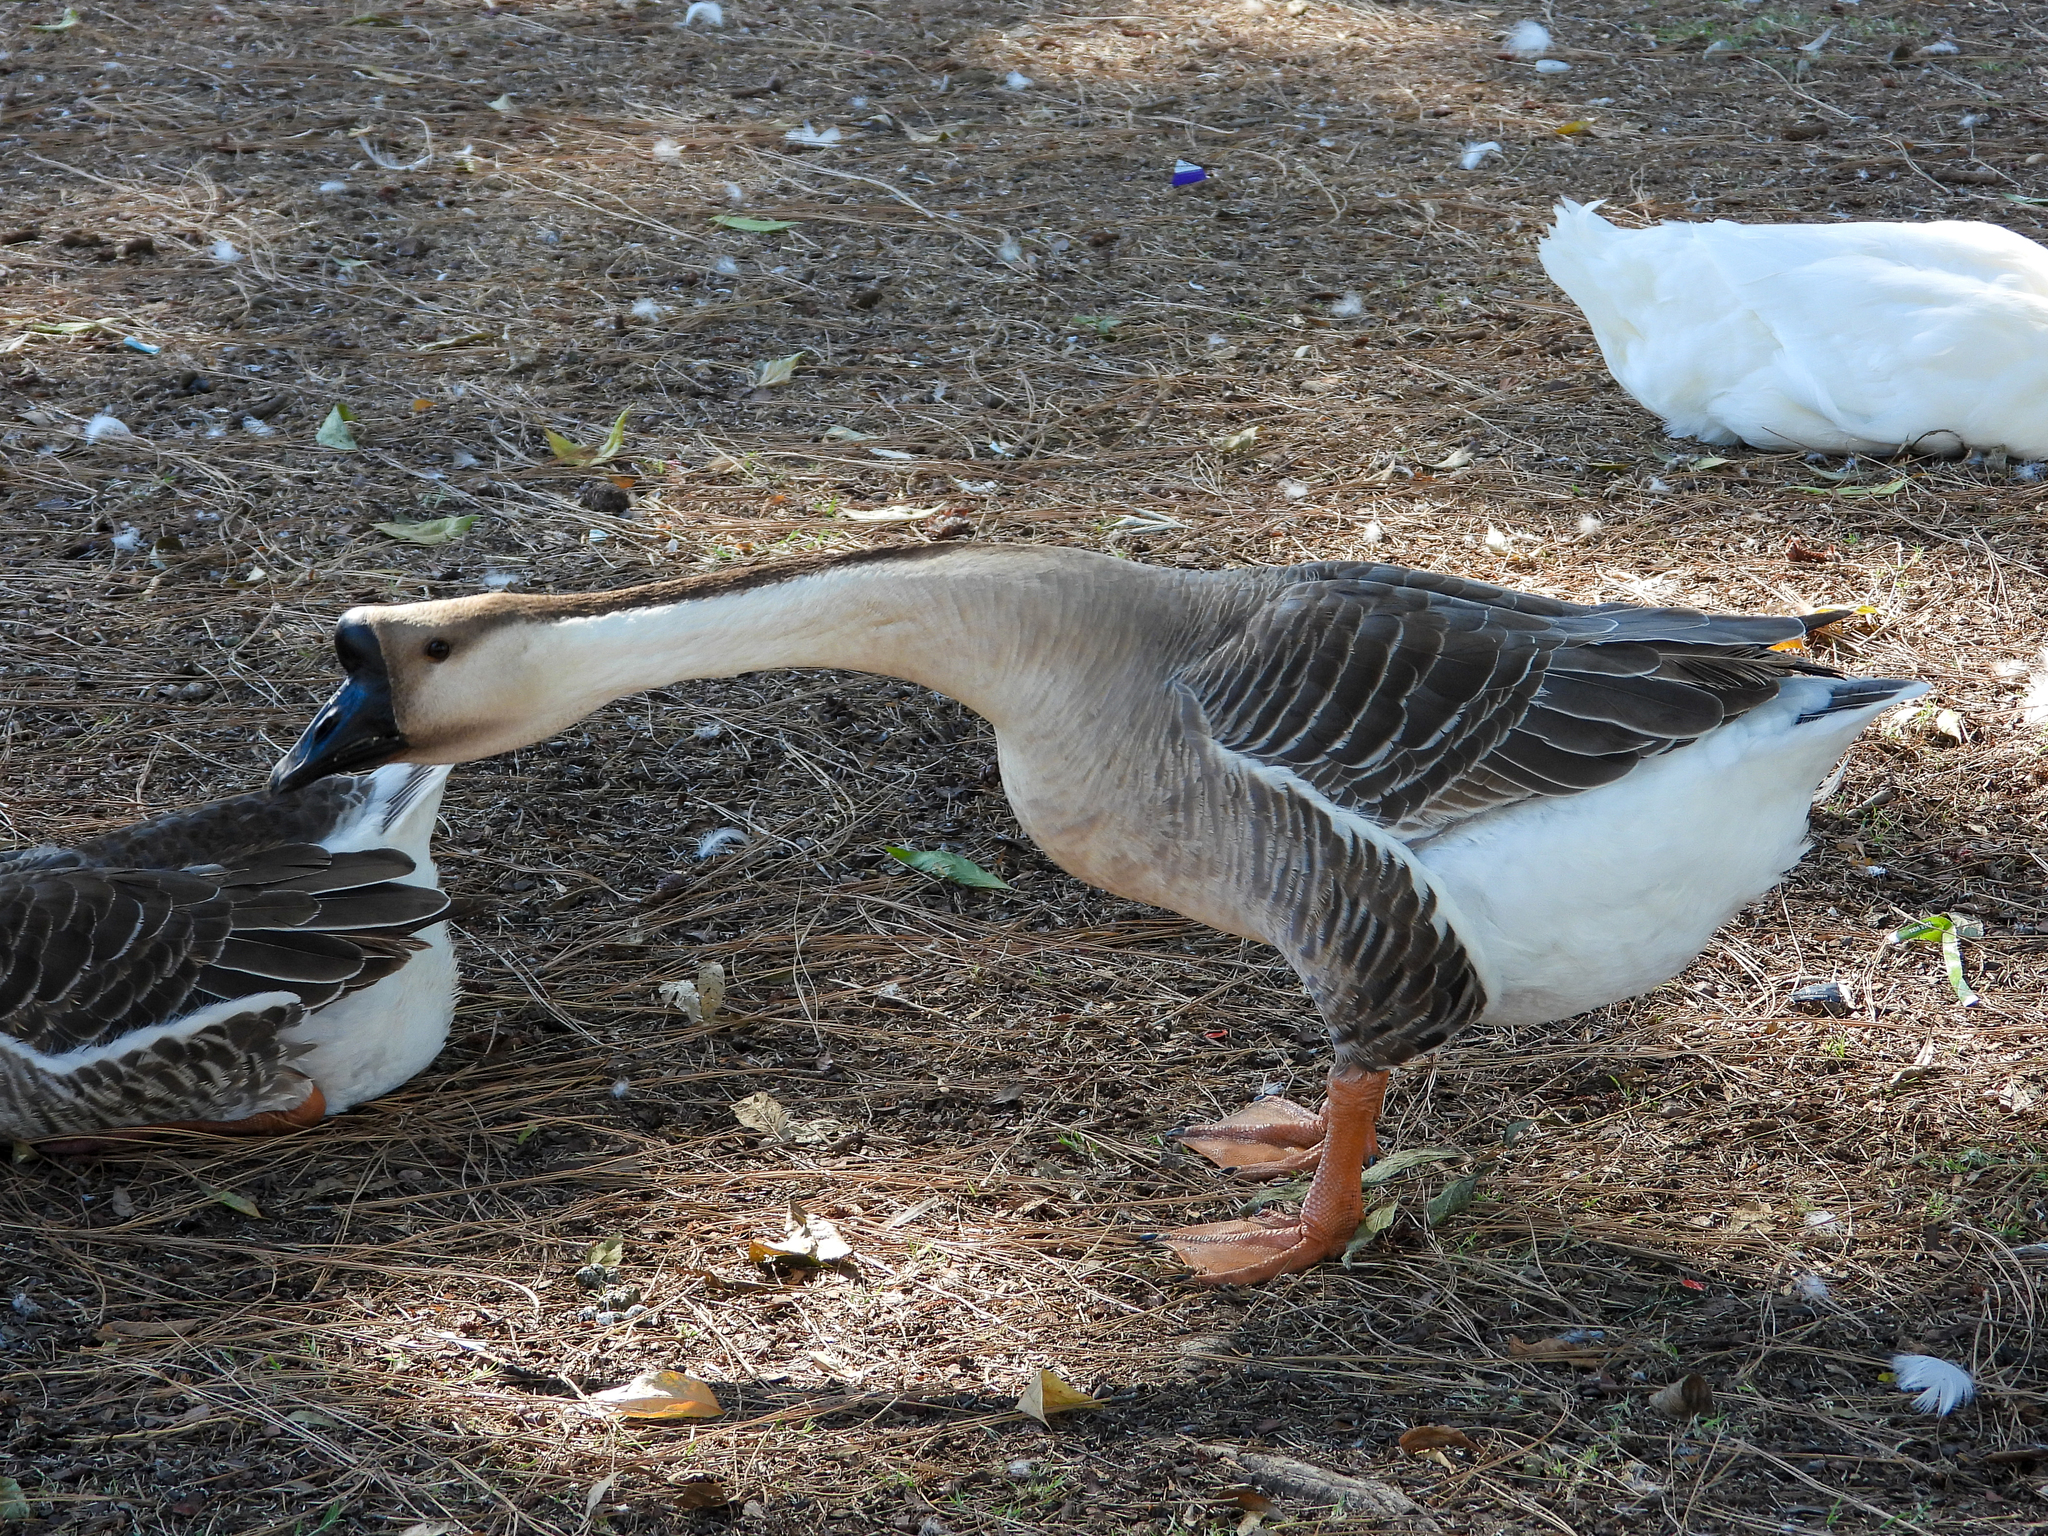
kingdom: Animalia
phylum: Chordata
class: Aves
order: Anseriformes
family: Anatidae
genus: Anser
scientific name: Anser cygnoides
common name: Swan goose
